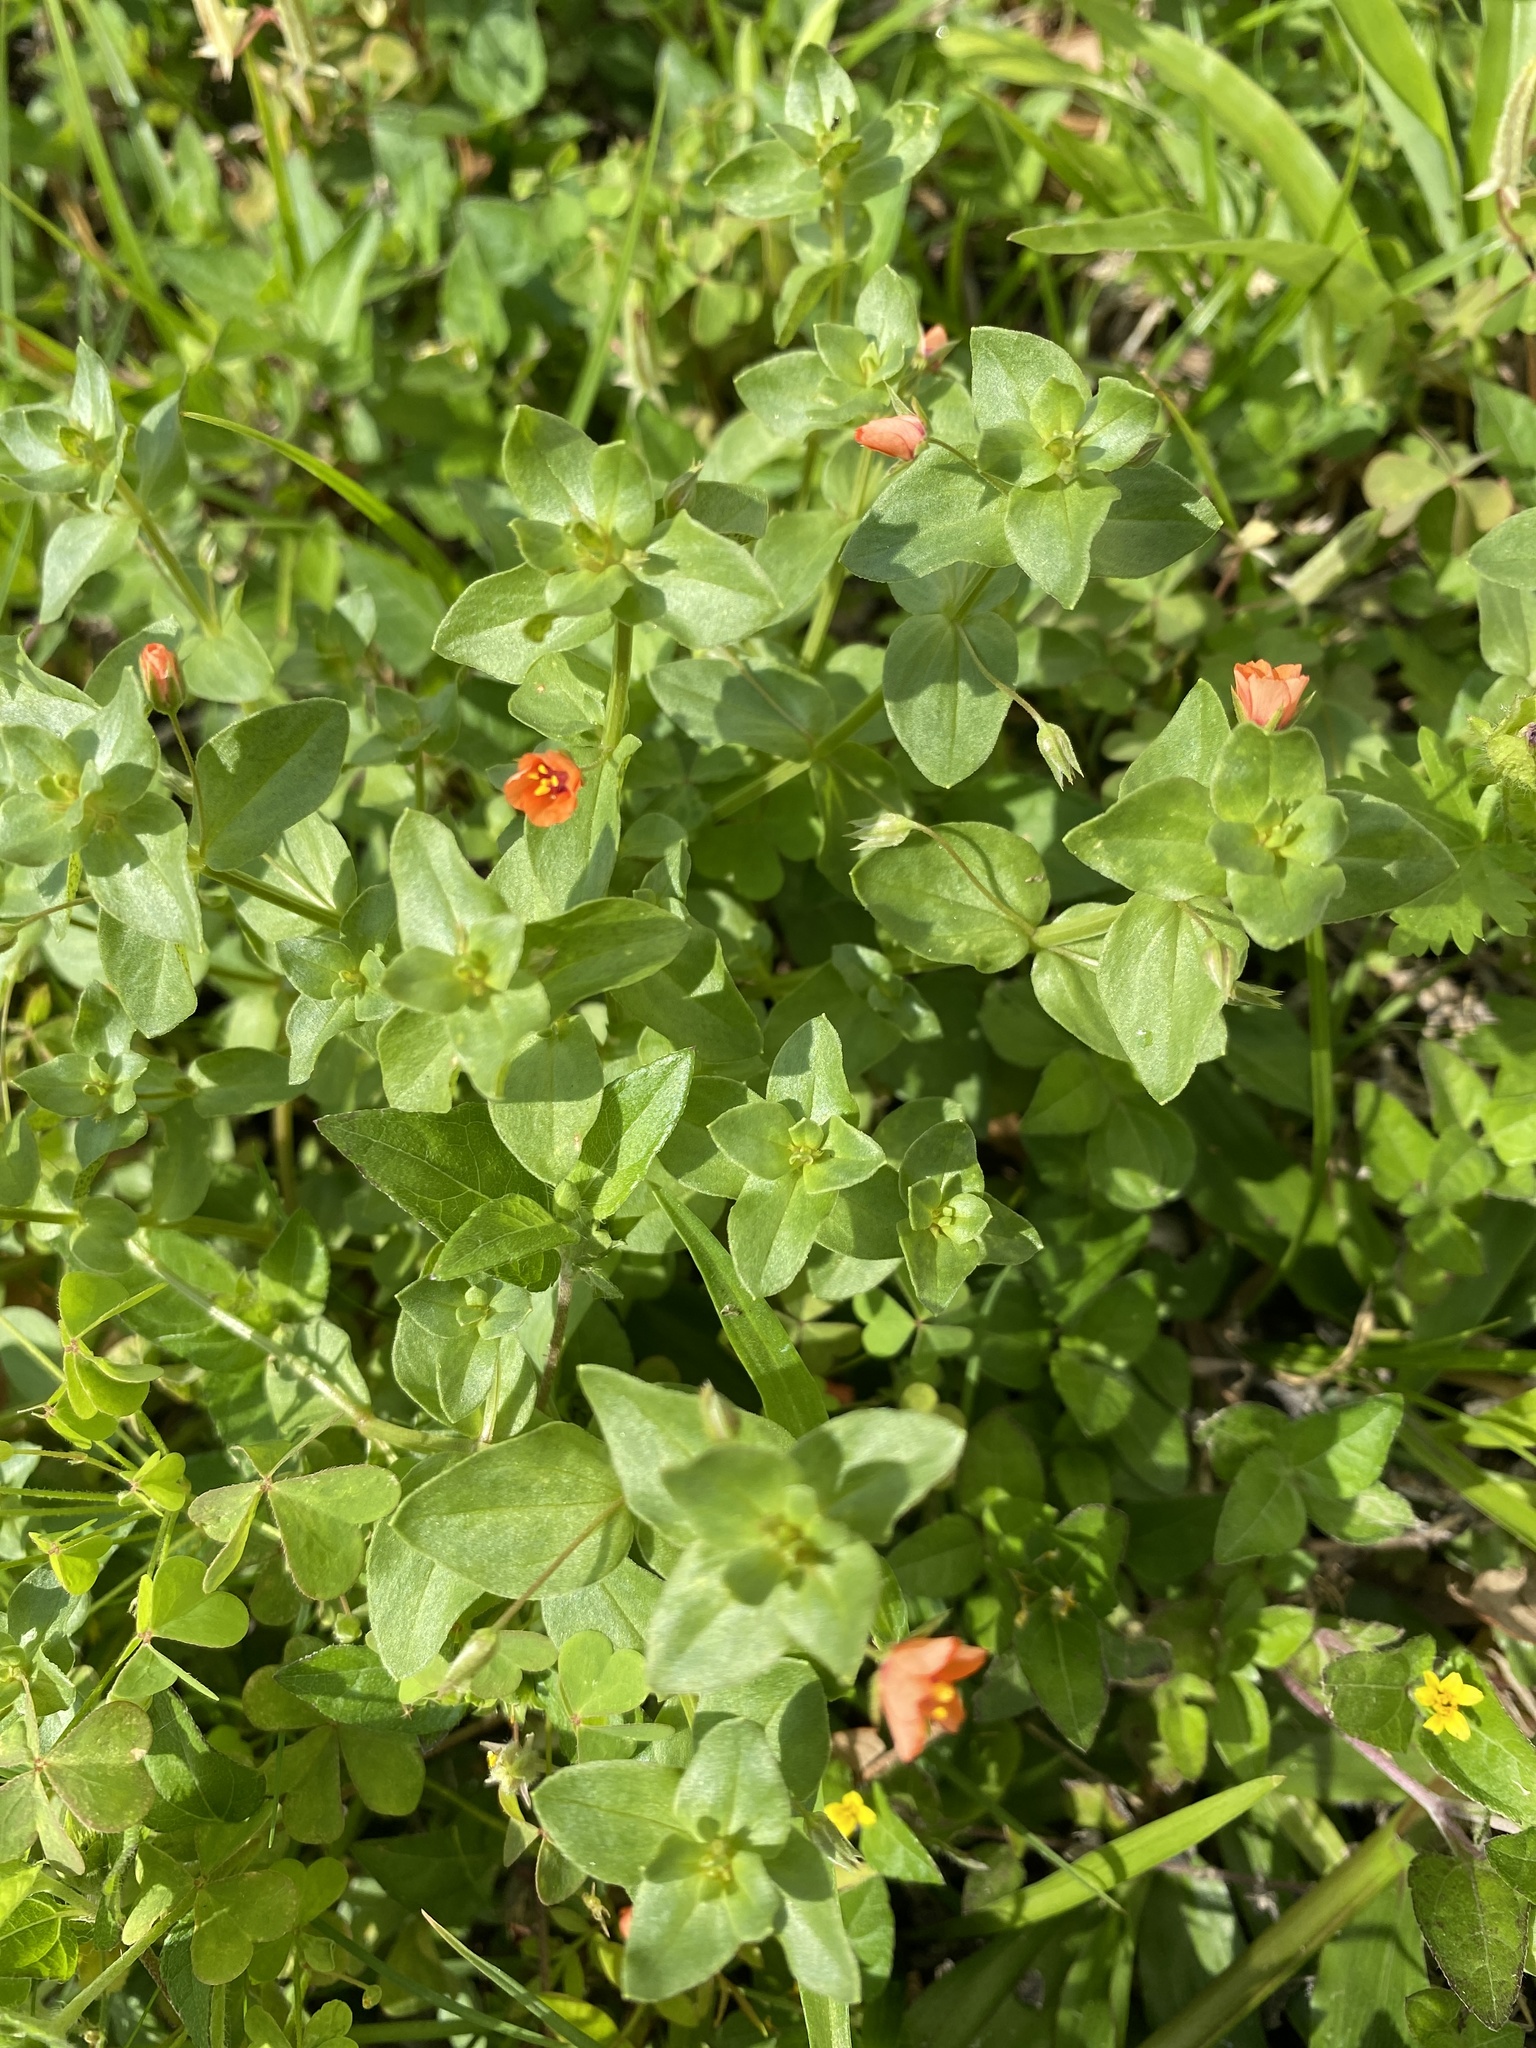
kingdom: Plantae
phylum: Tracheophyta
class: Magnoliopsida
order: Ericales
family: Primulaceae
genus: Lysimachia
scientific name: Lysimachia arvensis
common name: Scarlet pimpernel
